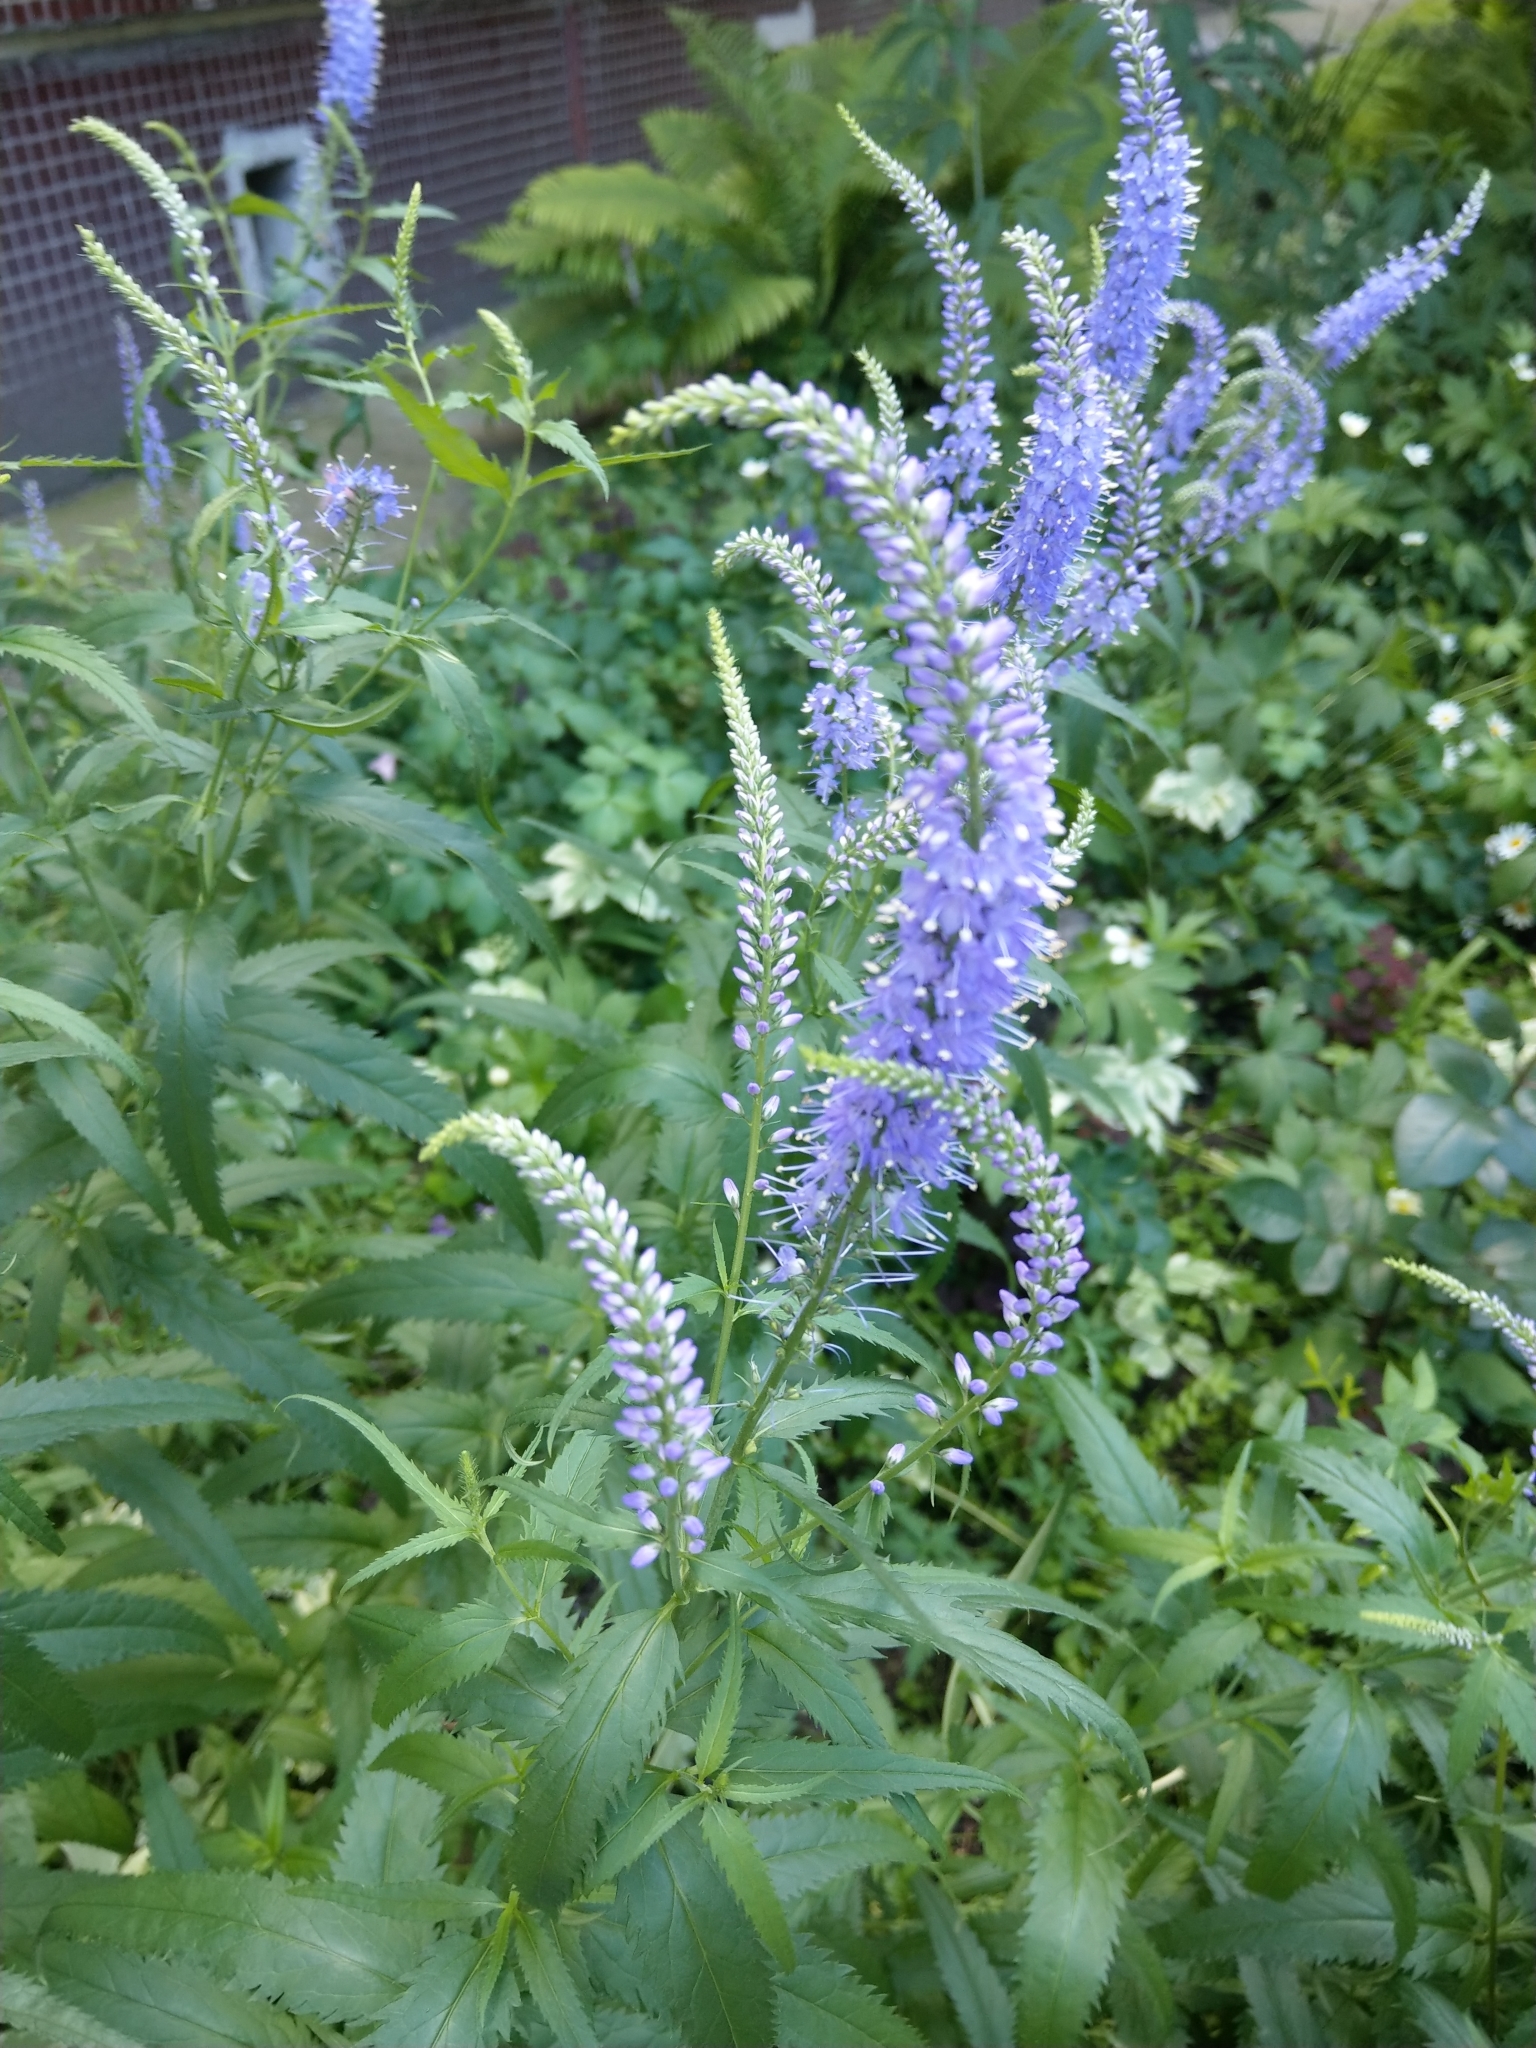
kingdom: Plantae
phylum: Tracheophyta
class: Magnoliopsida
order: Lamiales
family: Plantaginaceae
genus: Veronica
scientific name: Veronica longifolia
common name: Garden speedwell
